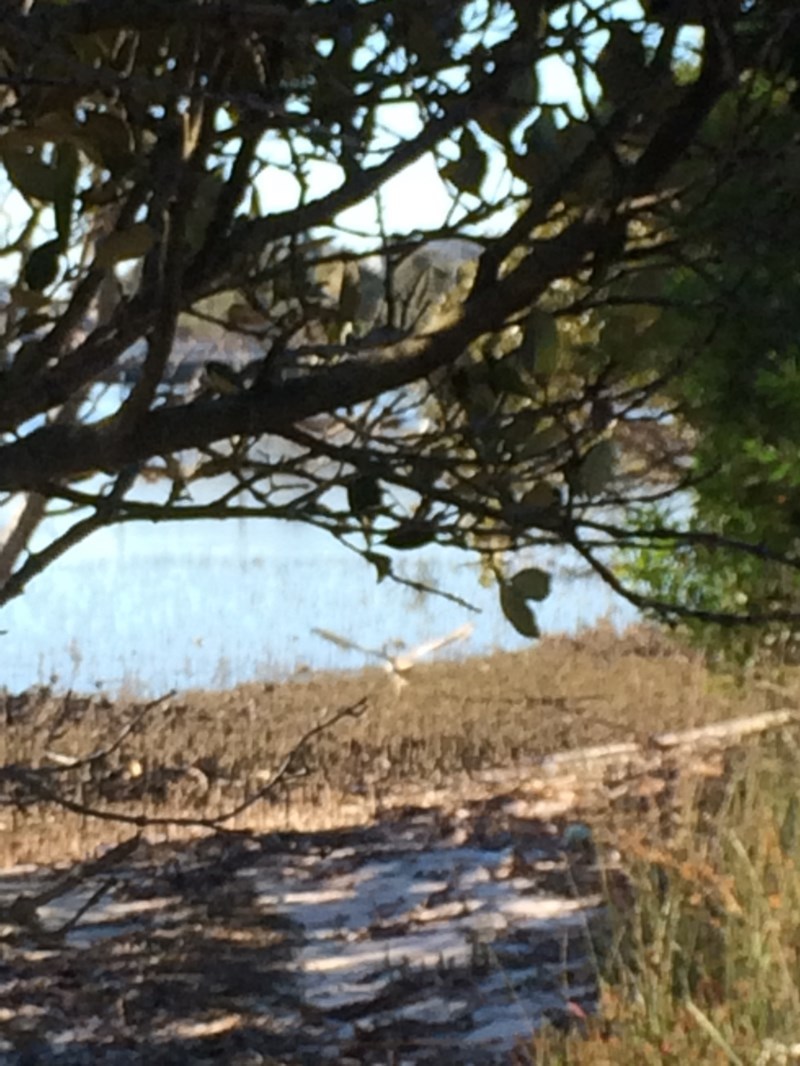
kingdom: Animalia
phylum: Chordata
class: Aves
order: Charadriiformes
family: Burhinidae
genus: Esacus
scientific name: Esacus magnirostris
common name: Beach stone-curlew
